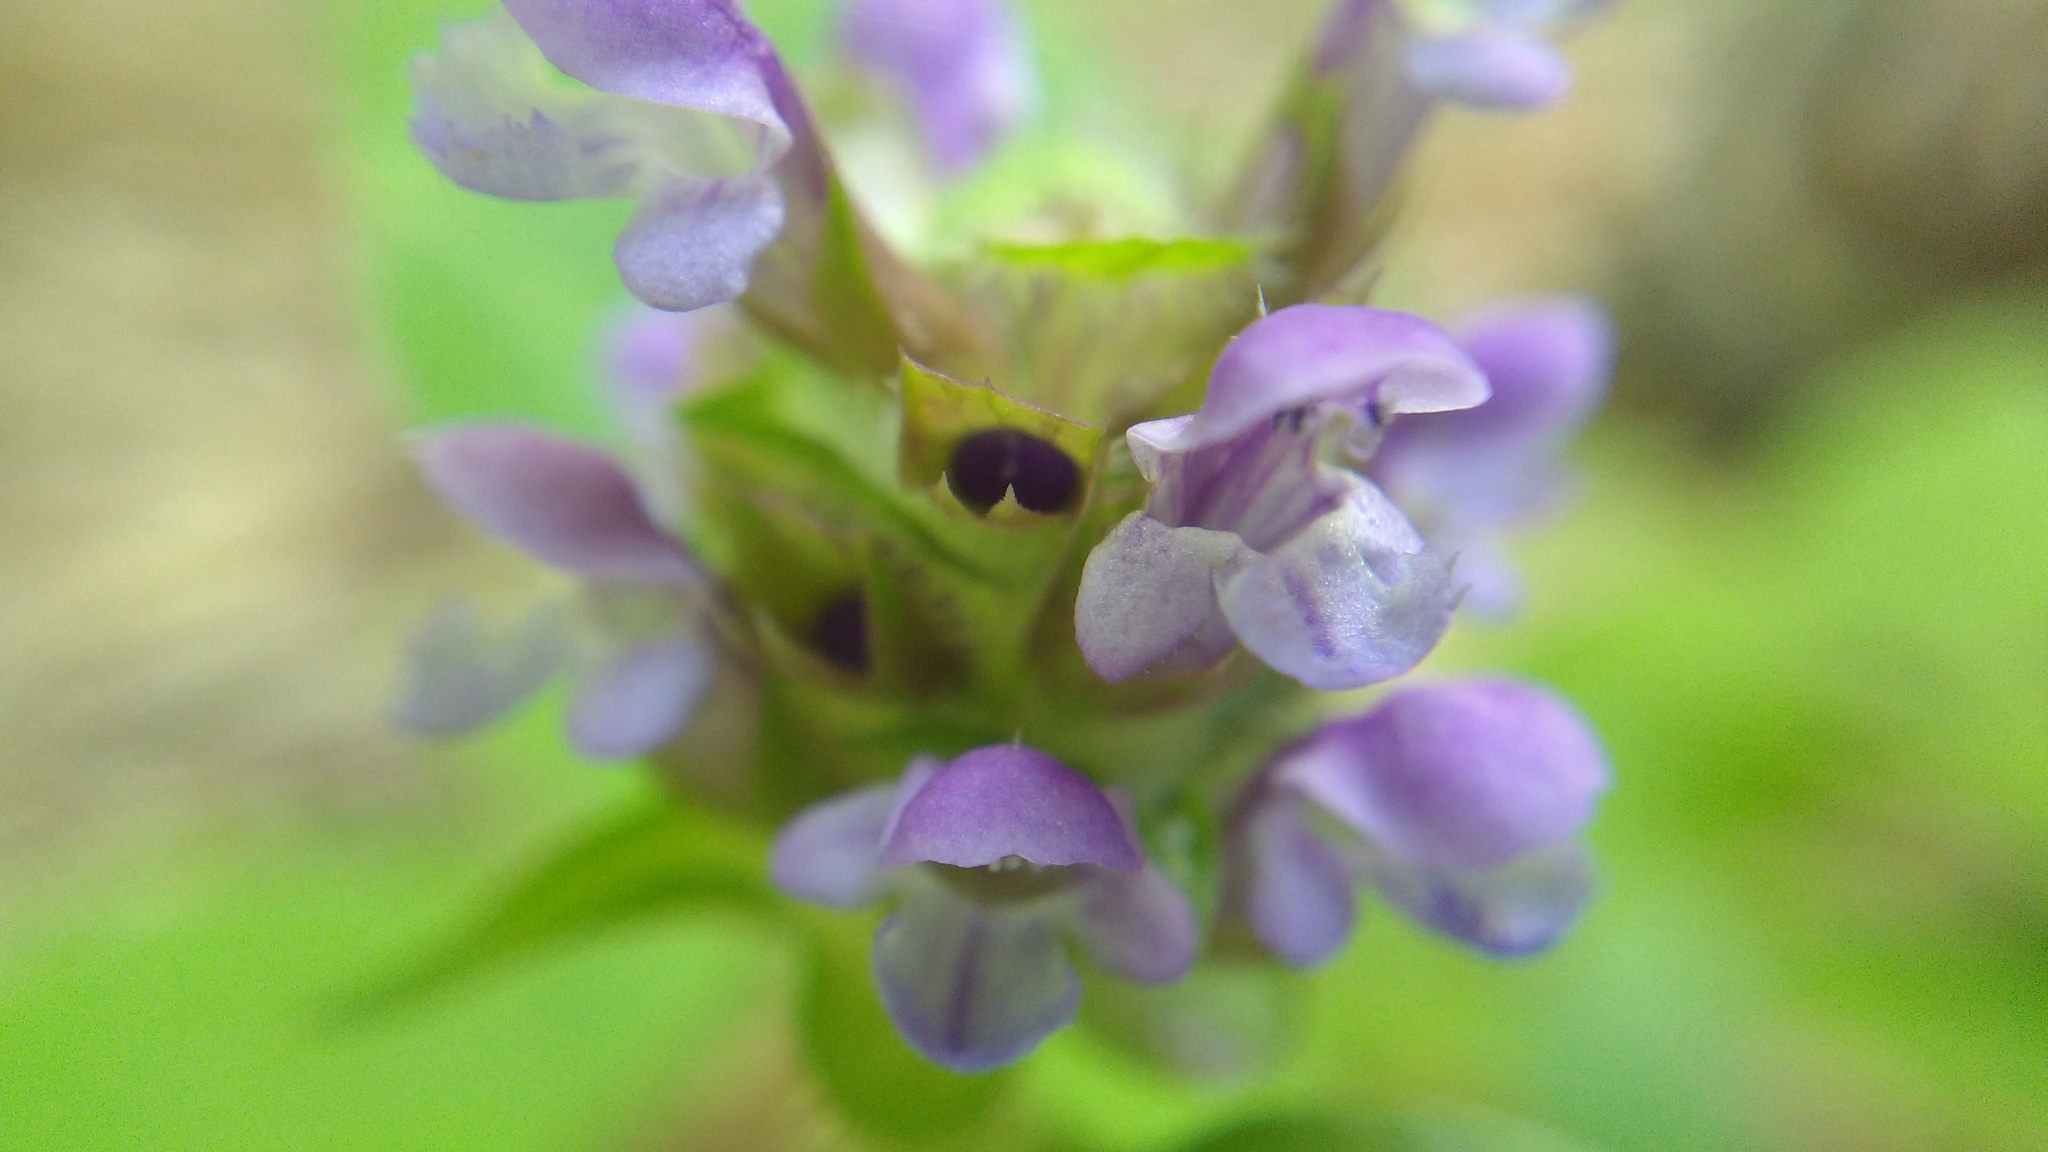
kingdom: Plantae
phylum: Tracheophyta
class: Magnoliopsida
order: Lamiales
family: Lamiaceae
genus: Prunella
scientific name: Prunella vulgaris
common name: Heal-all
